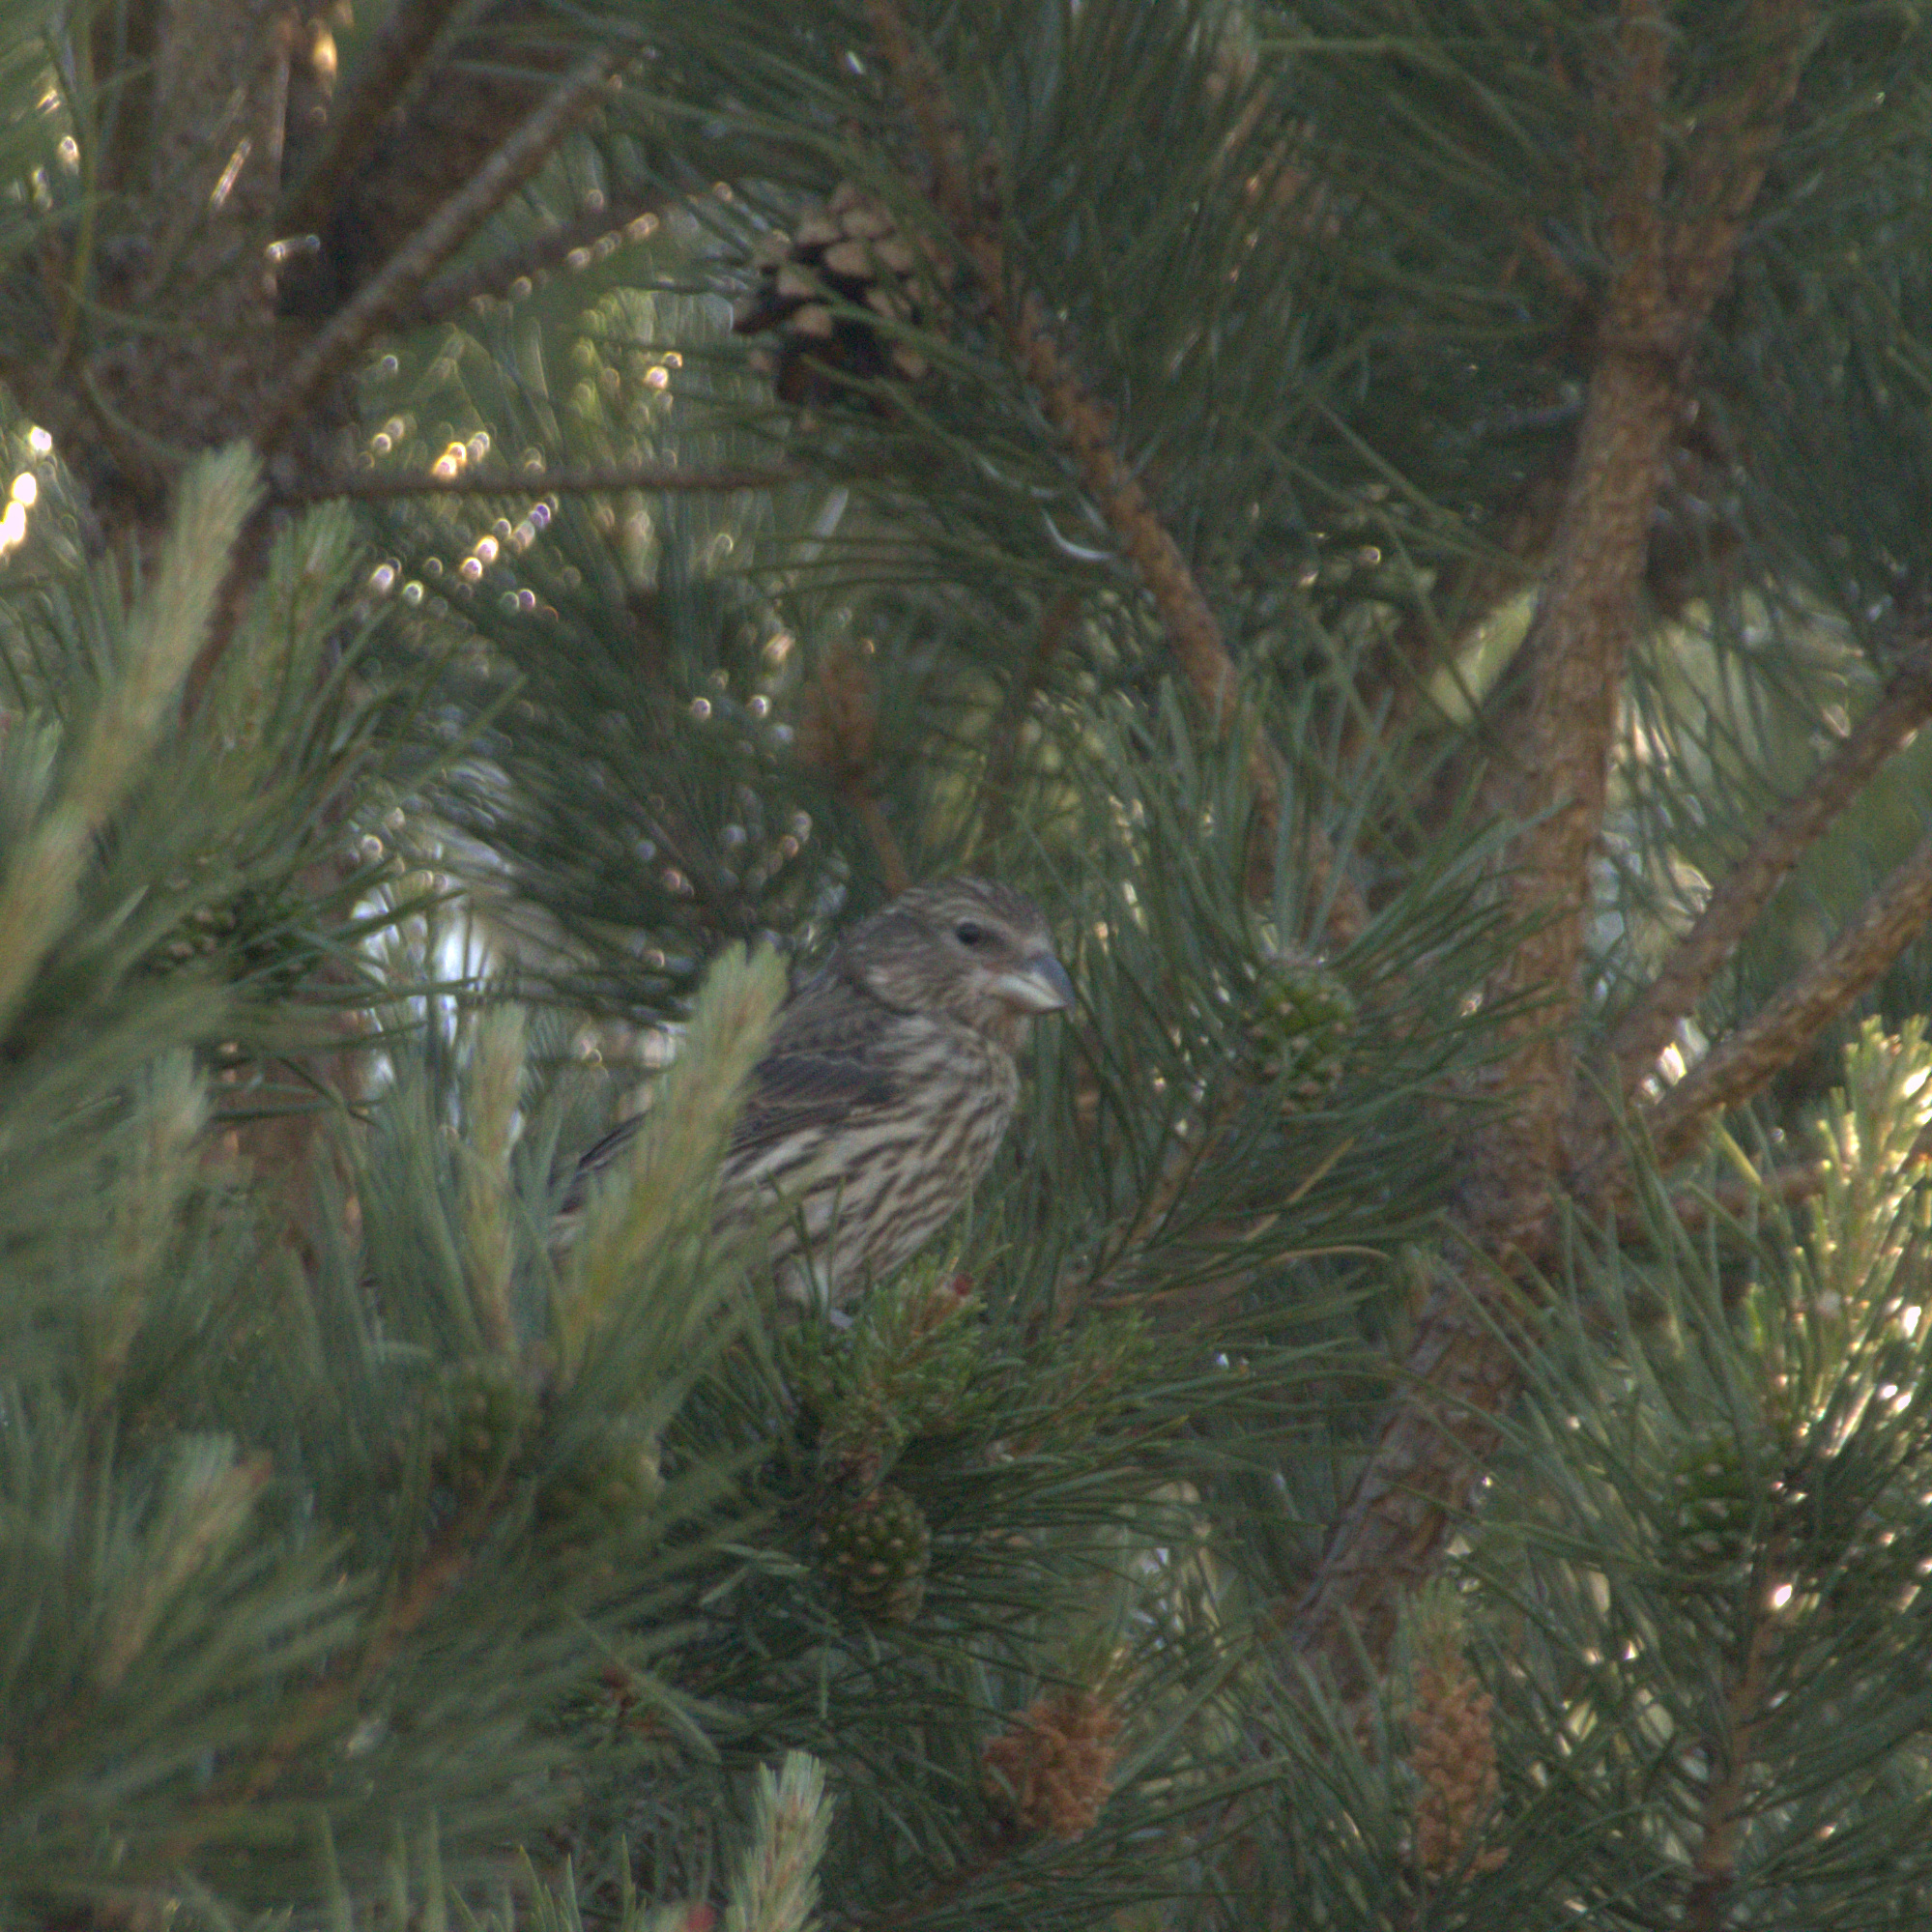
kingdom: Animalia
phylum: Chordata
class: Aves
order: Passeriformes
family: Fringillidae
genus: Loxia
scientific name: Loxia curvirostra
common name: Red crossbill
